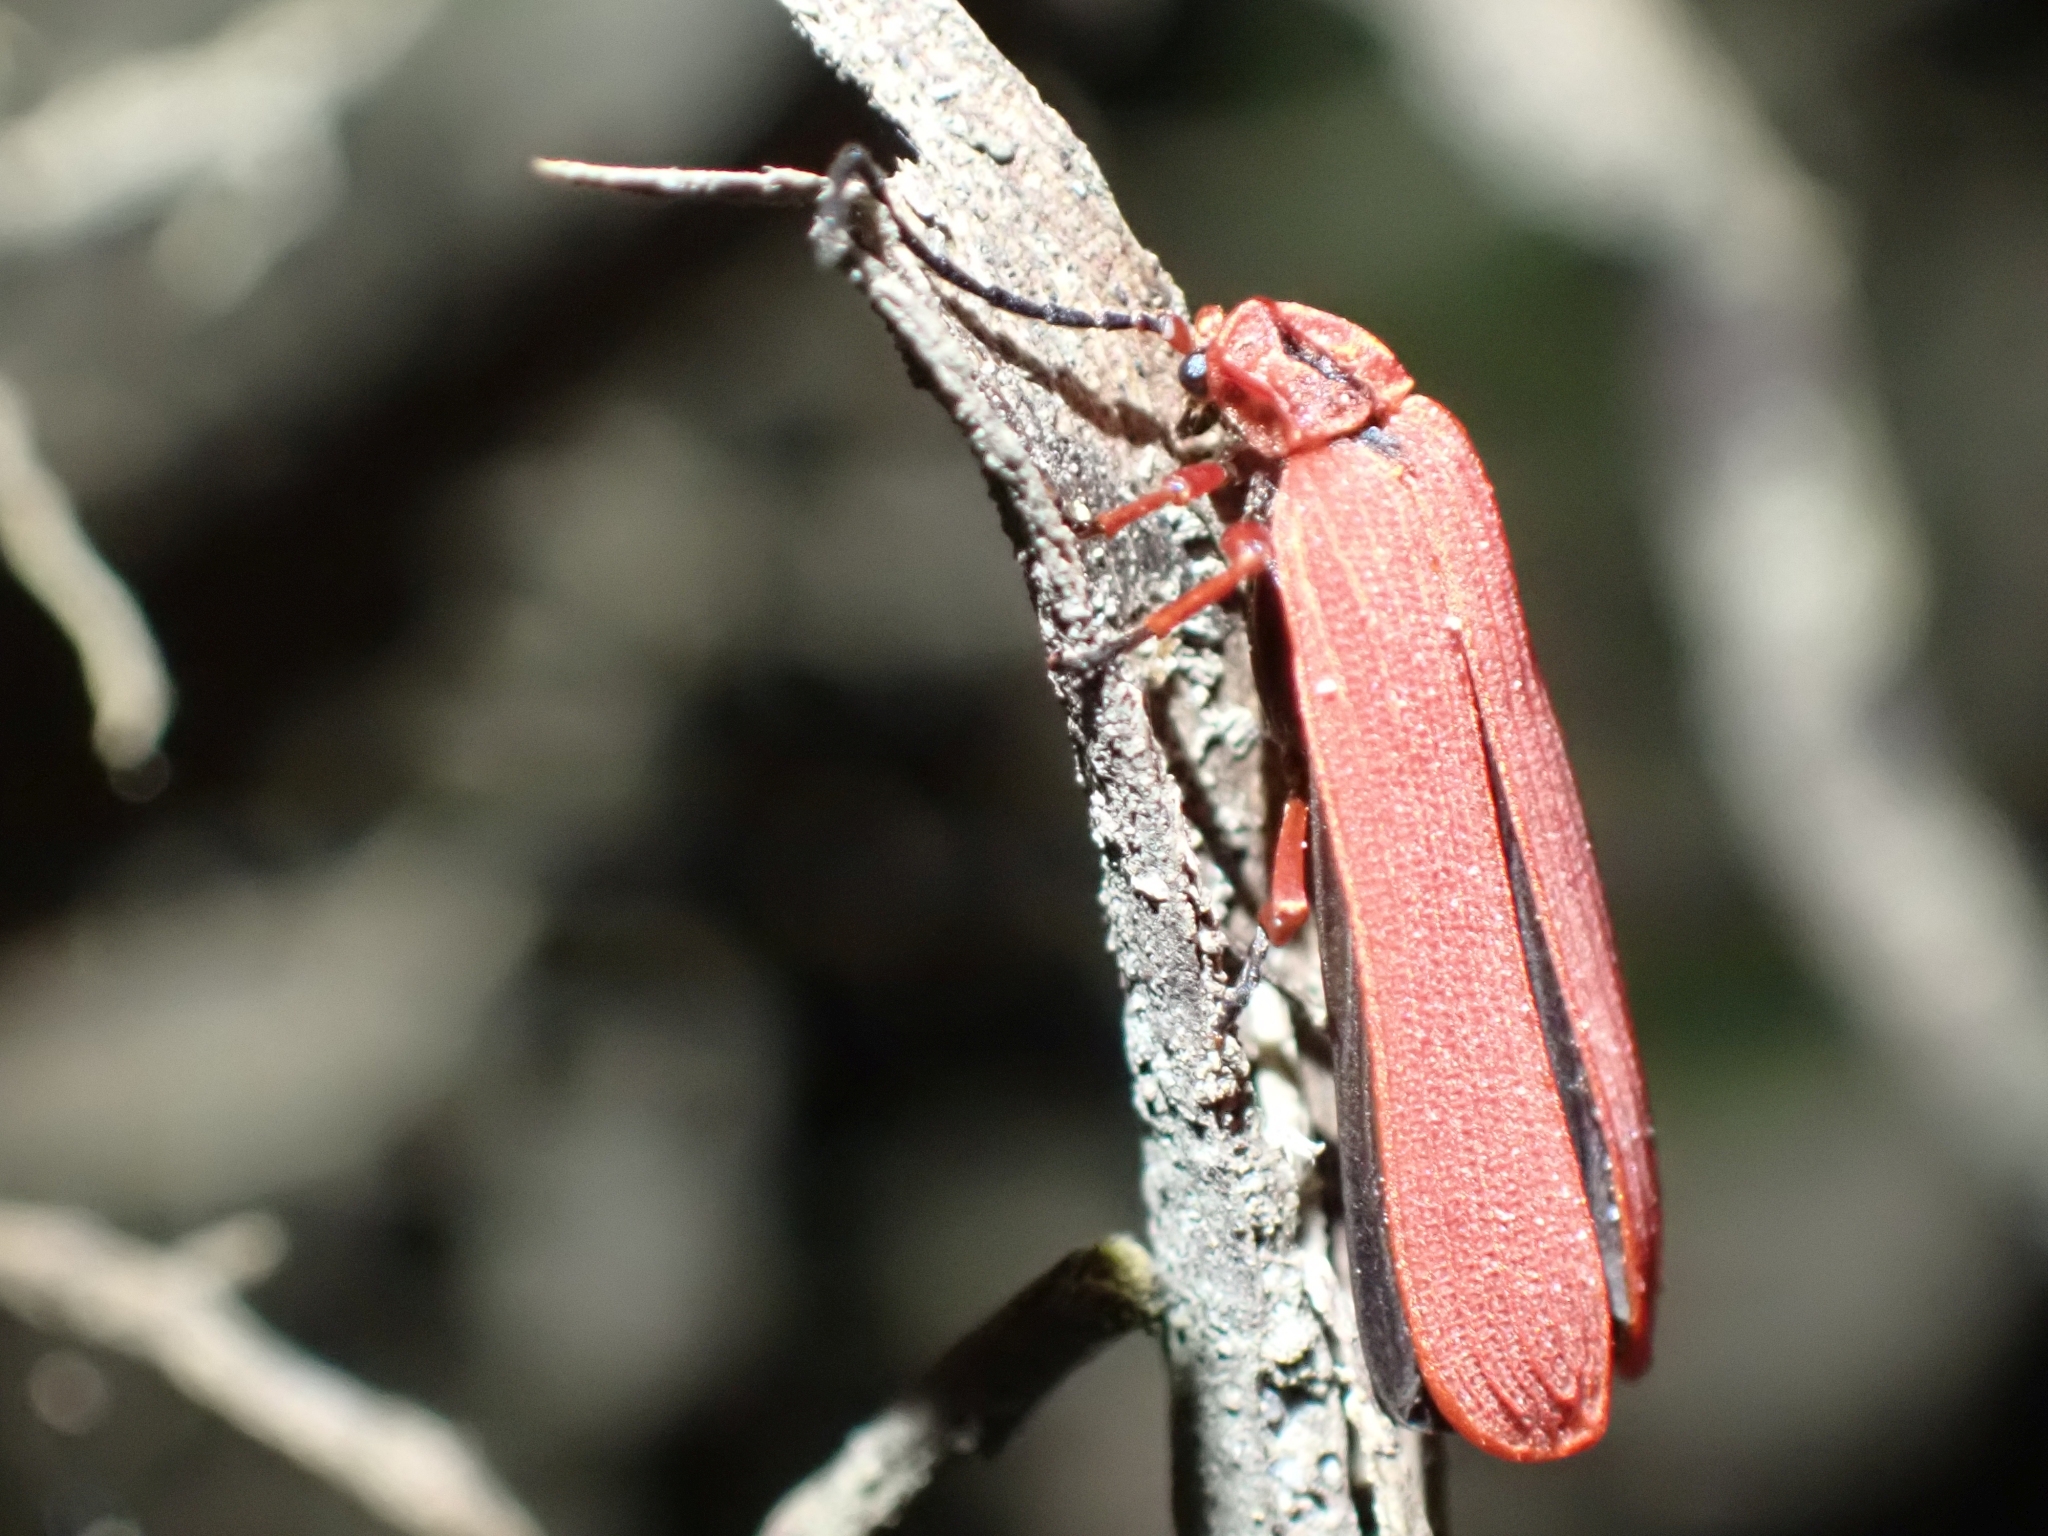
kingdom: Animalia
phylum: Arthropoda
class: Insecta
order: Coleoptera
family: Lycidae
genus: Dictyoptera
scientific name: Dictyoptera simplicipes
